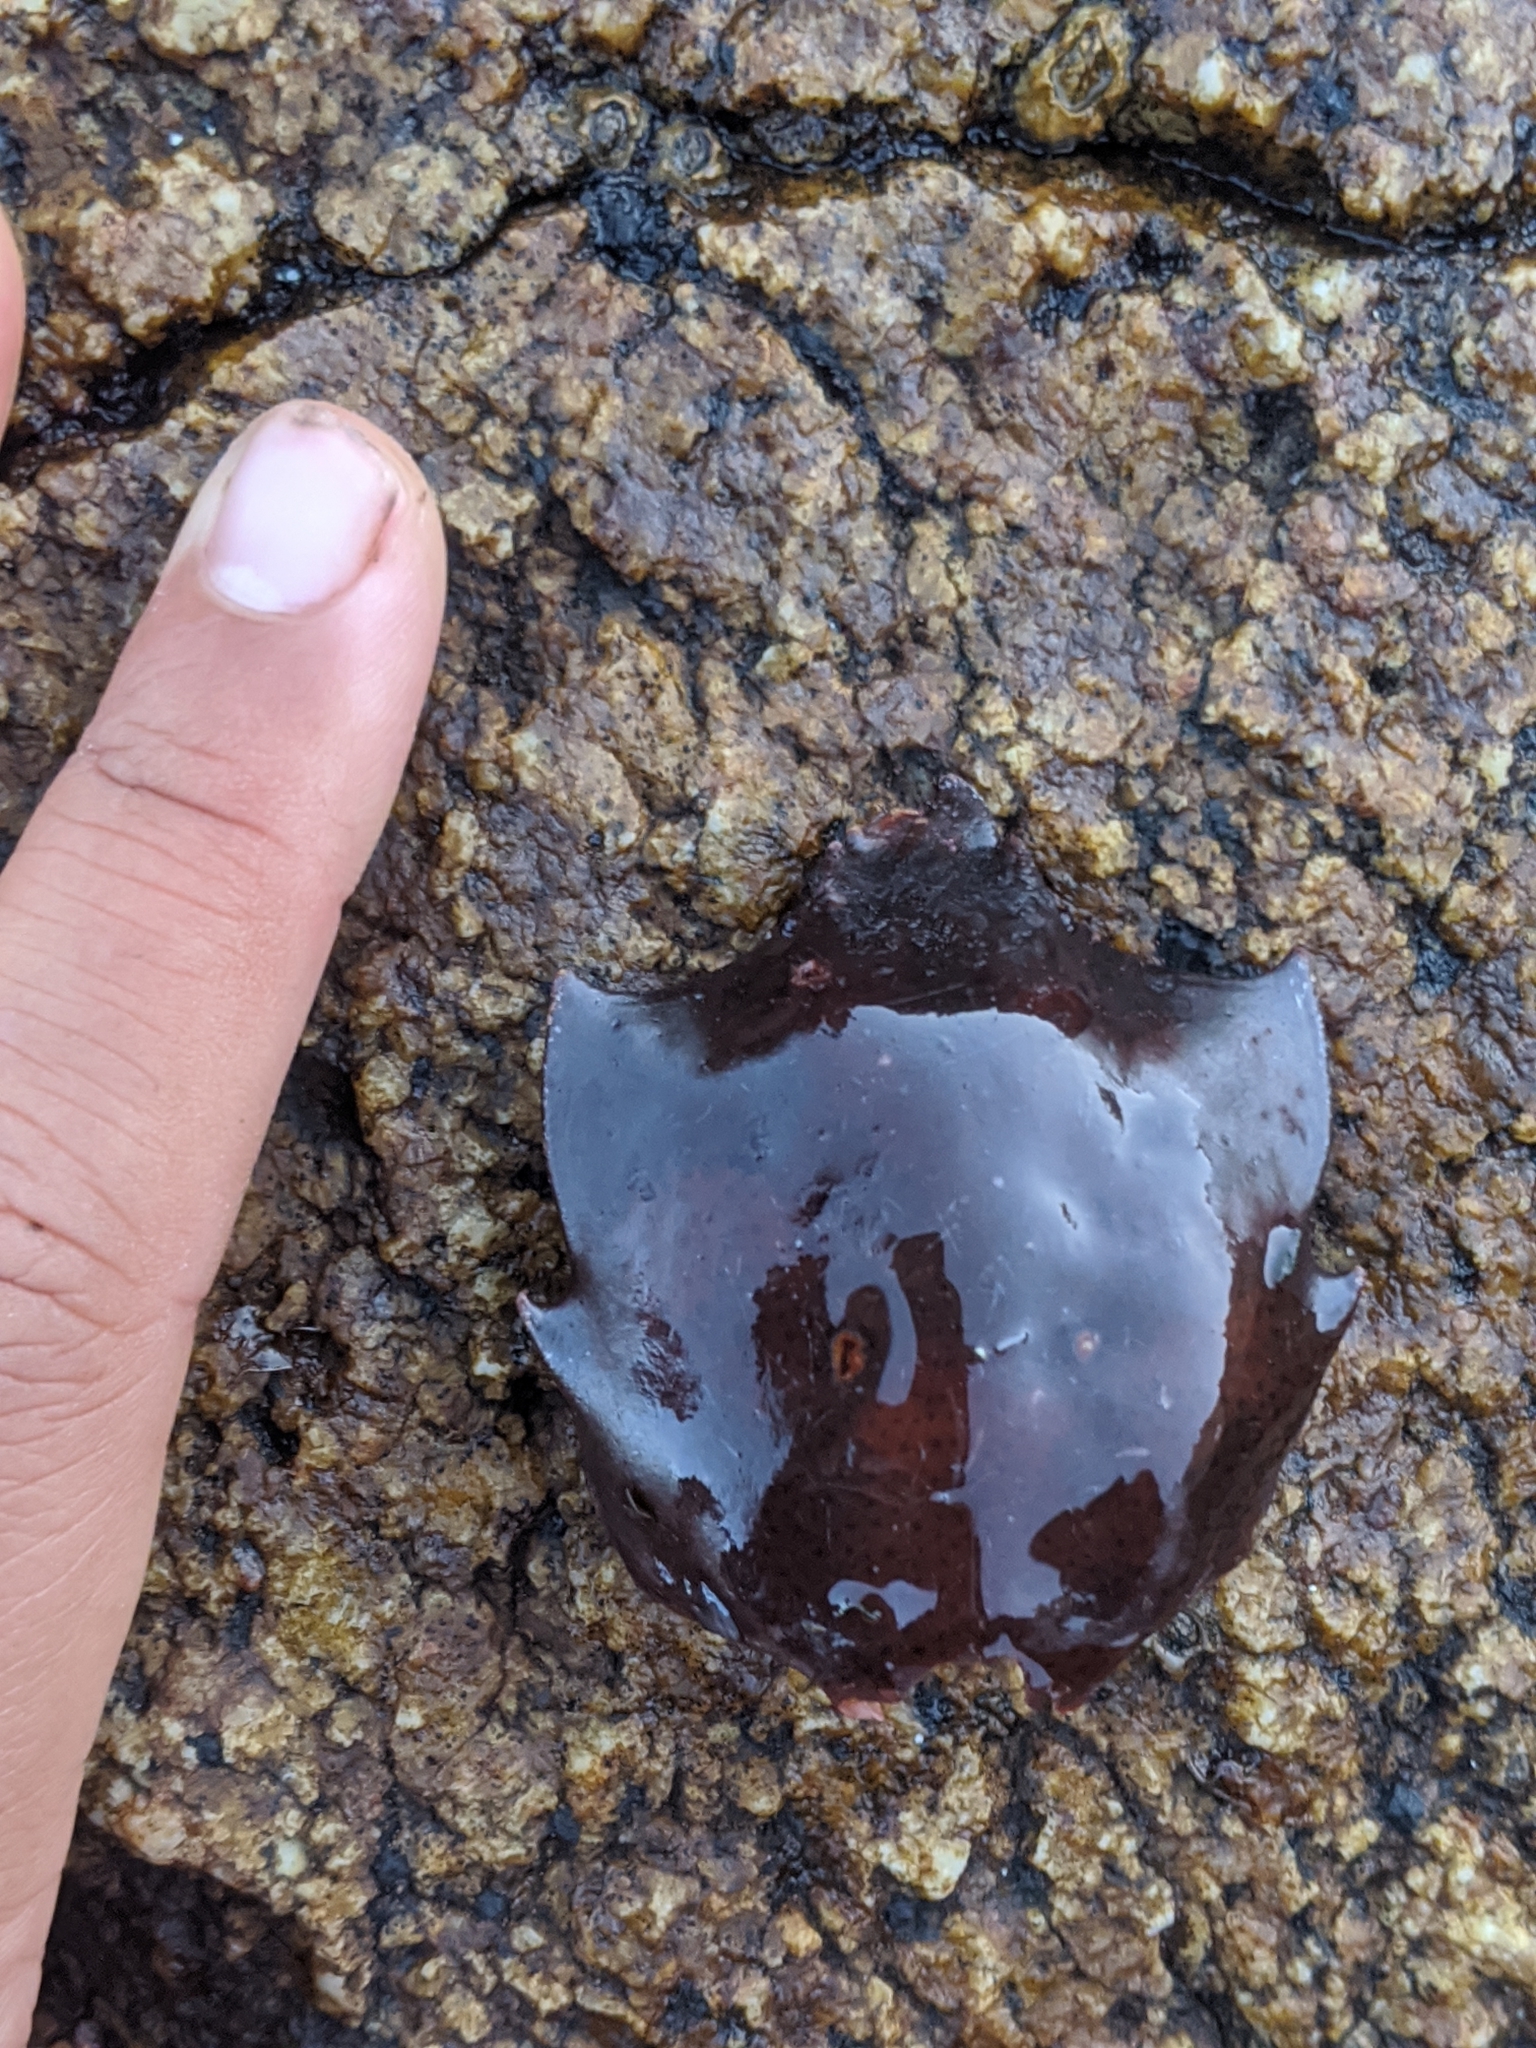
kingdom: Animalia
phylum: Arthropoda
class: Malacostraca
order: Decapoda
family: Epialtidae
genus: Pugettia
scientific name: Pugettia producta
